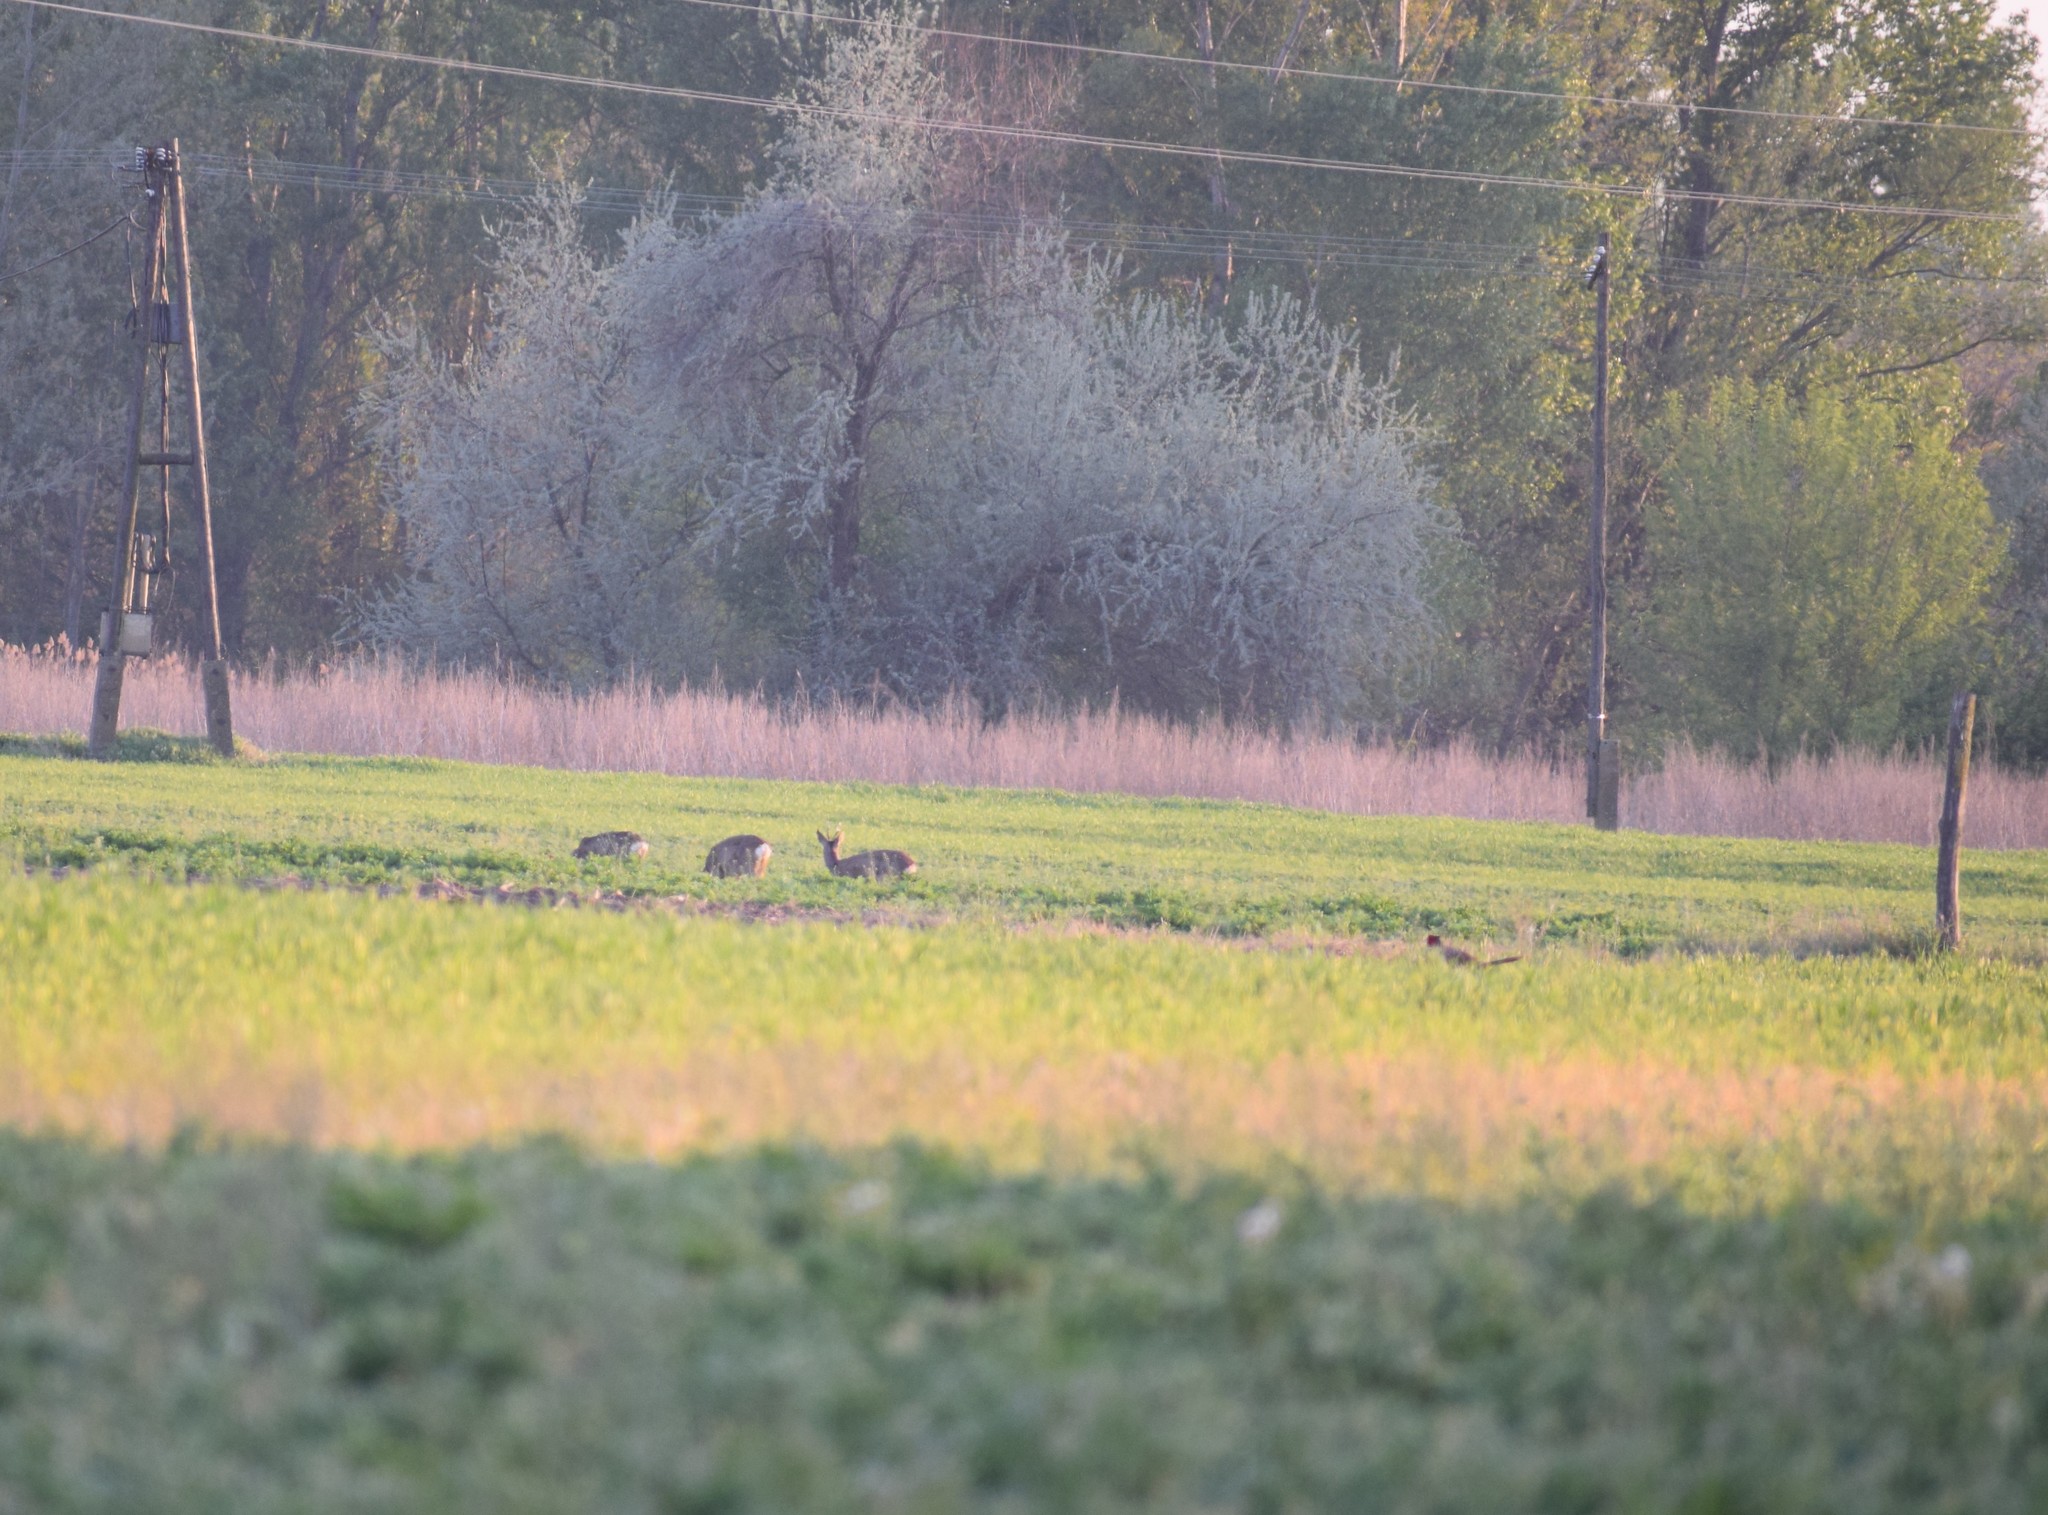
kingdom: Animalia
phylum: Chordata
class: Aves
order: Galliformes
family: Phasianidae
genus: Phasianus
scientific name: Phasianus colchicus
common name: Common pheasant
